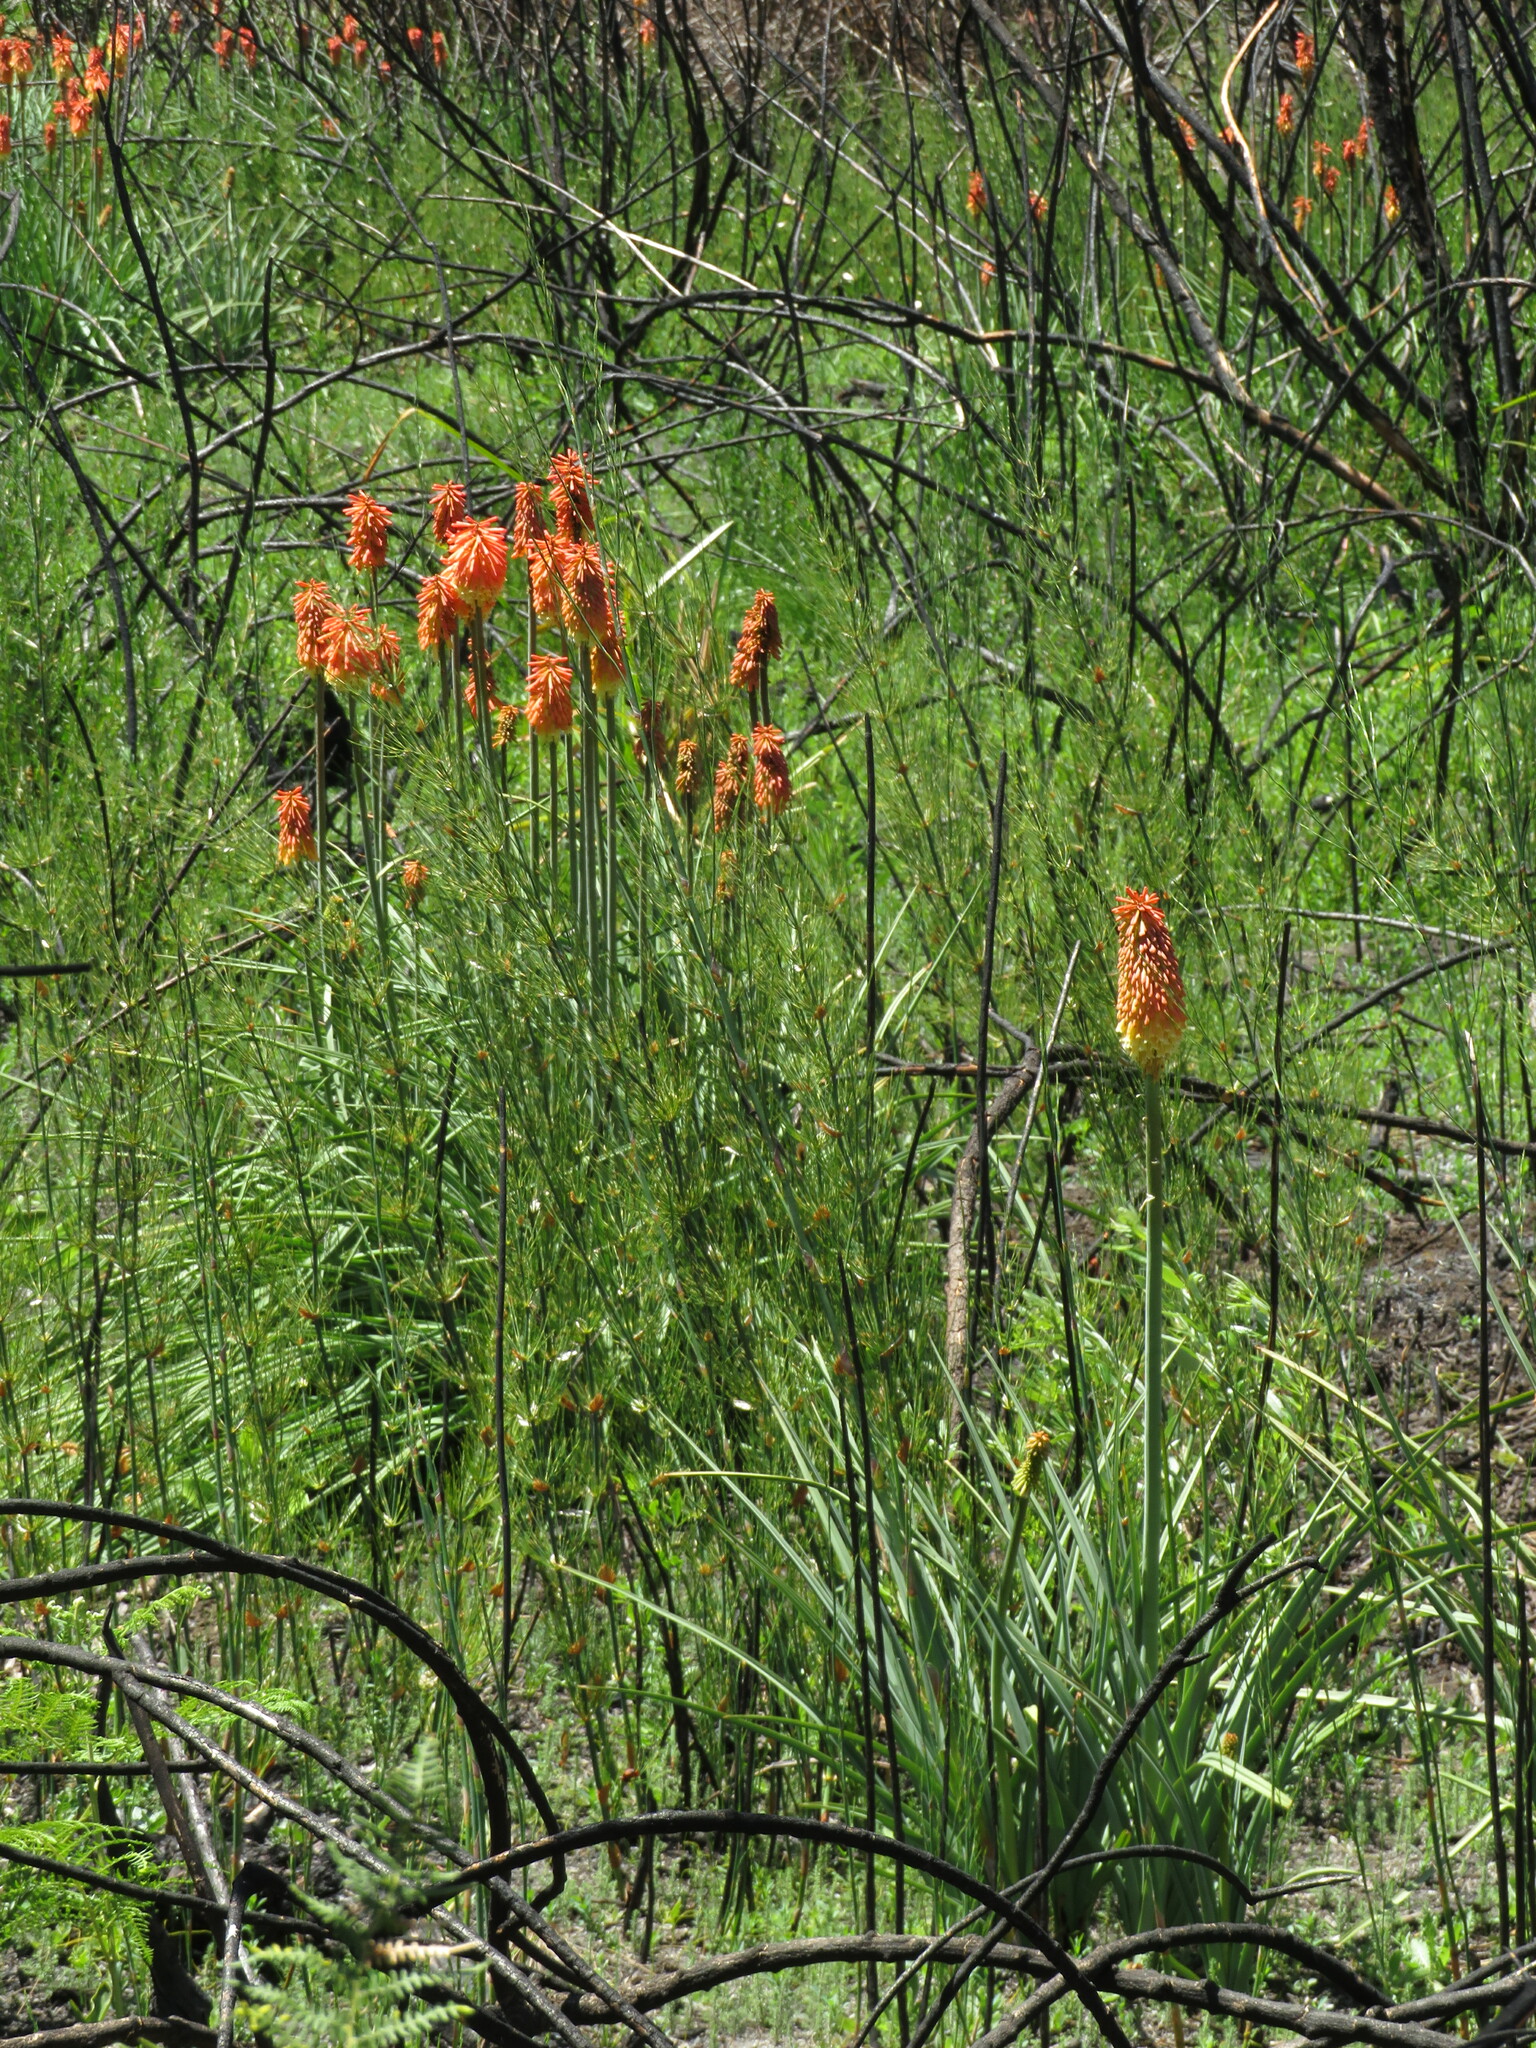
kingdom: Plantae
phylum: Tracheophyta
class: Liliopsida
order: Asparagales
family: Asphodelaceae
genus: Kniphofia
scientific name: Kniphofia uvaria
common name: Red-hot-poker
